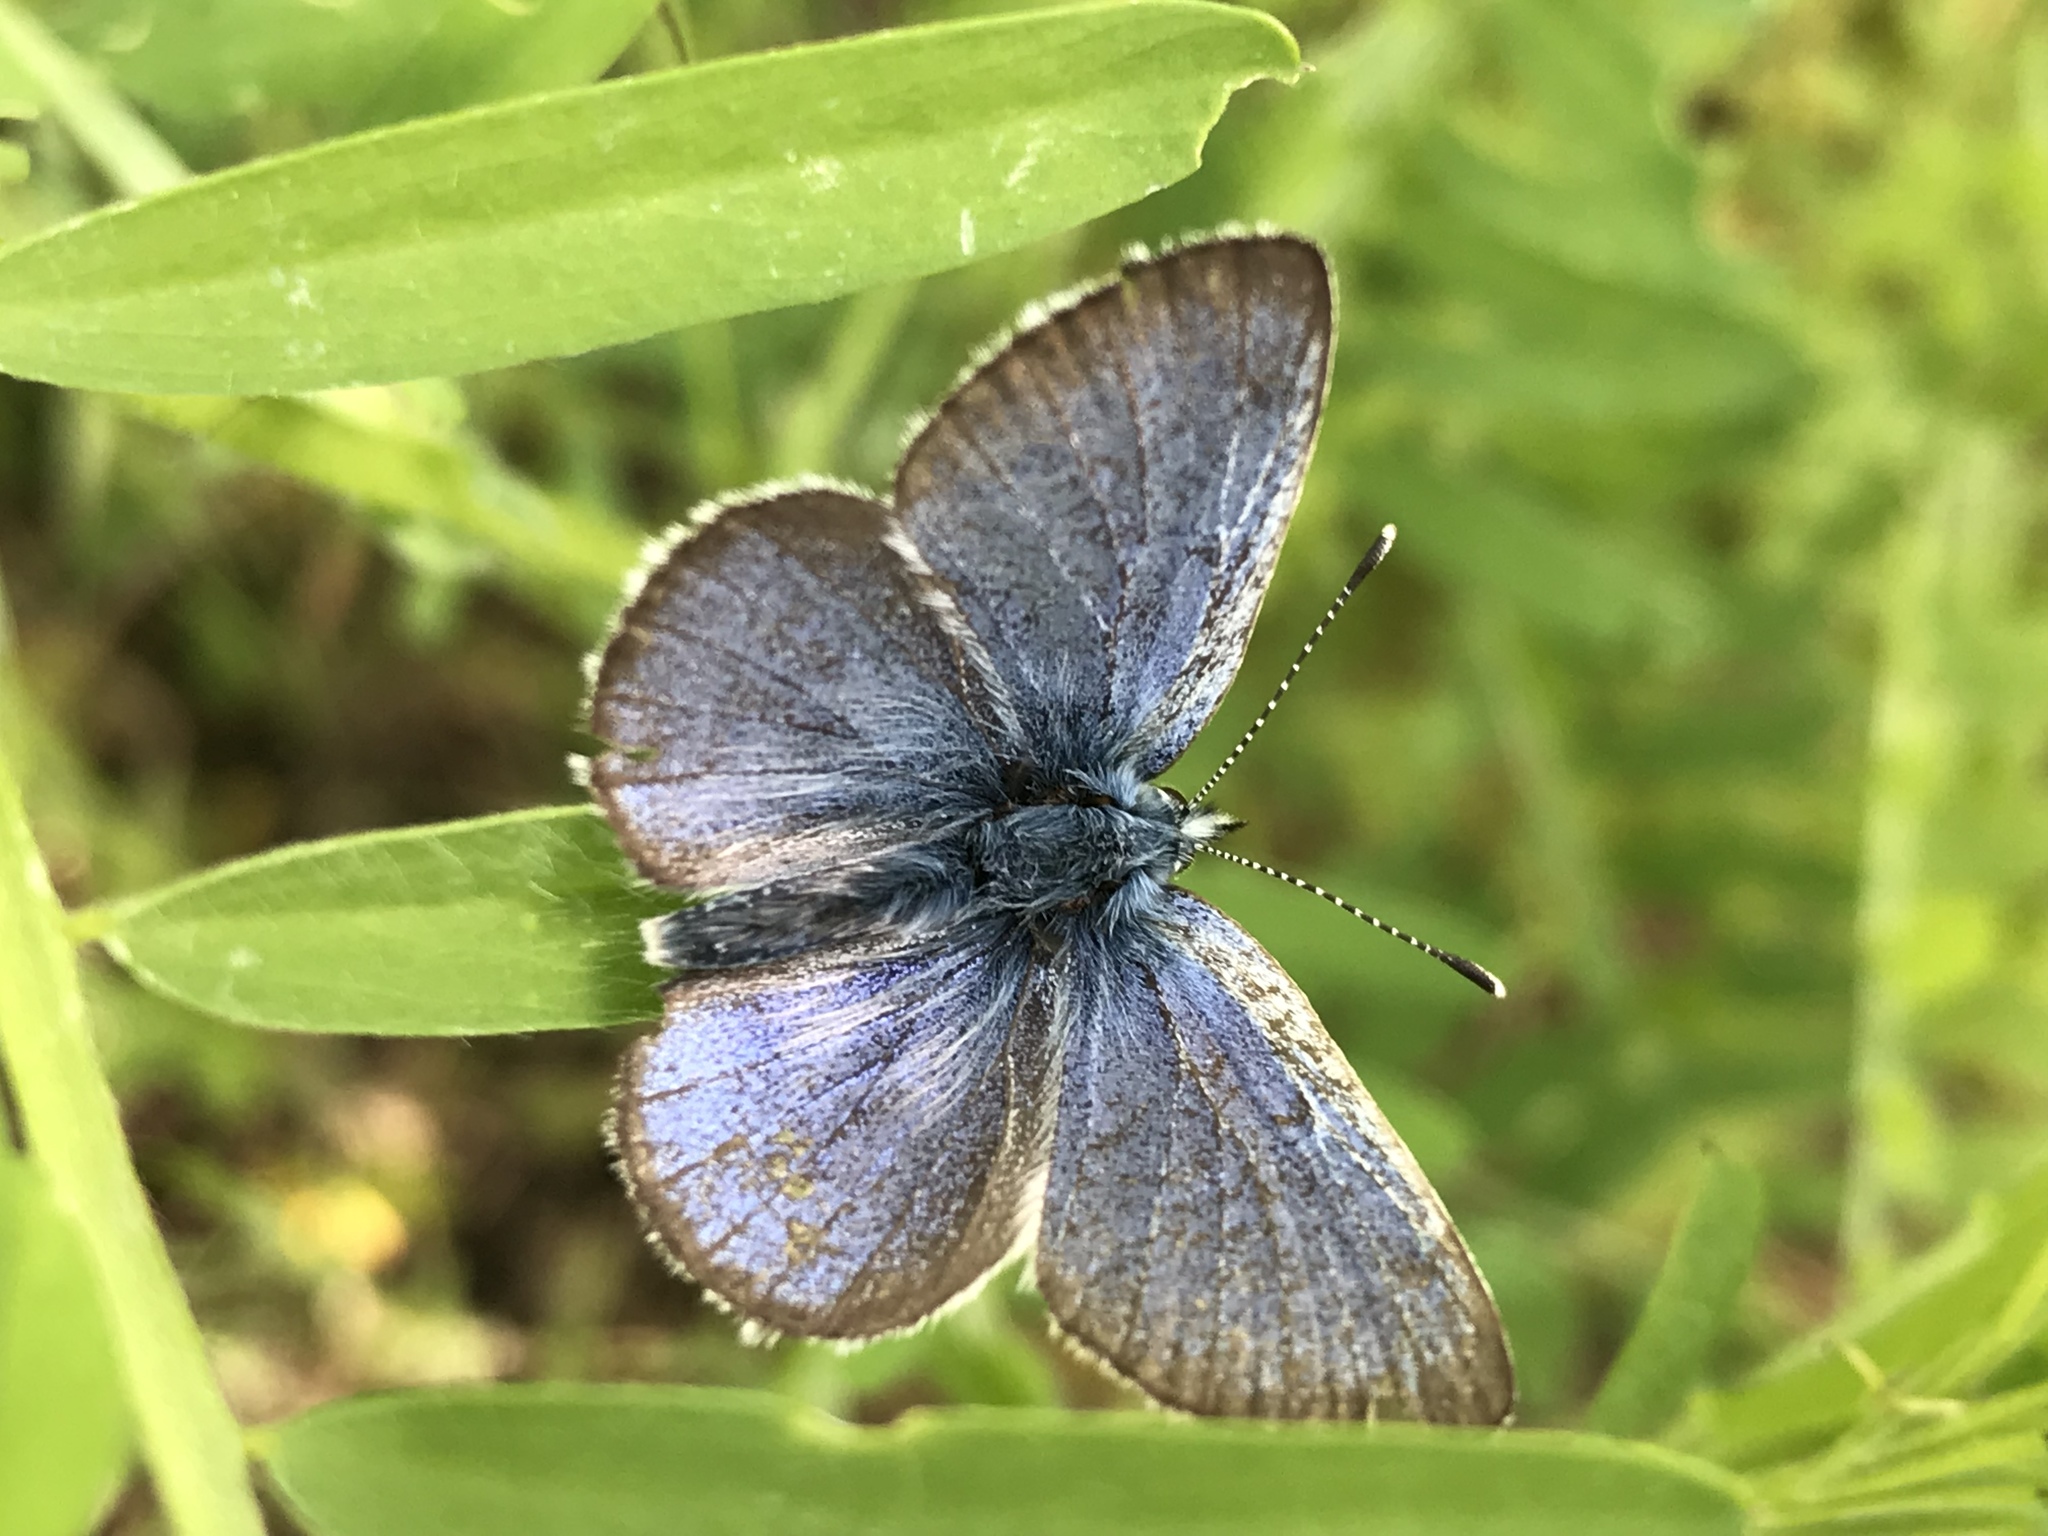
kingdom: Animalia
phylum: Arthropoda
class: Insecta
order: Lepidoptera
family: Lycaenidae
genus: Glaucopsyche
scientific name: Glaucopsyche lygdamus
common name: Silvery blue
